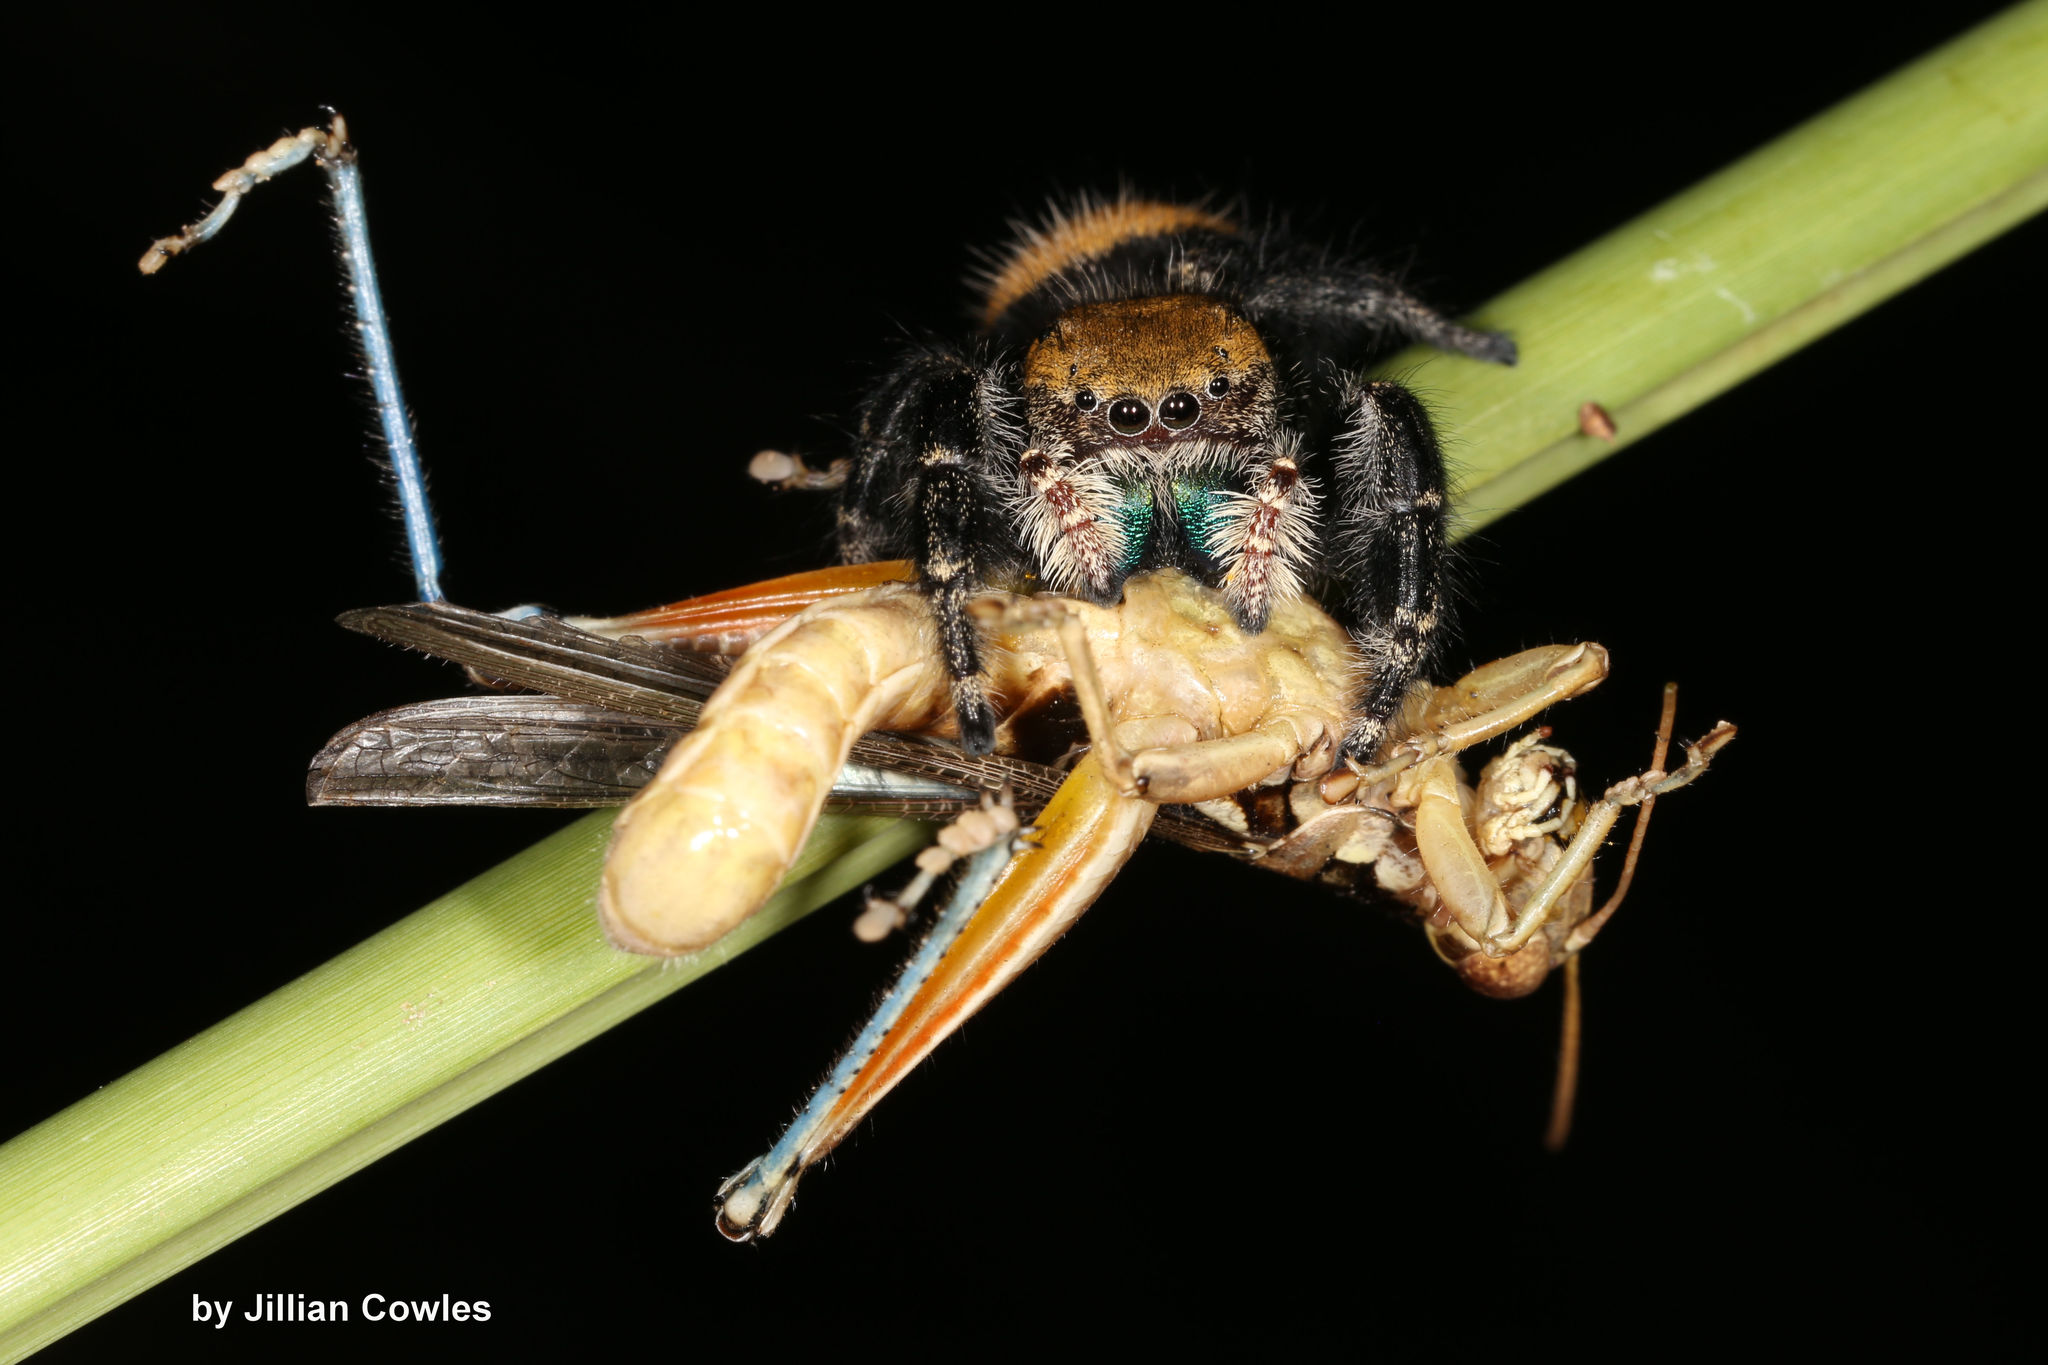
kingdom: Animalia
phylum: Arthropoda
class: Arachnida
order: Araneae
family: Salticidae
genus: Phidippus
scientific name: Phidippus apacheanus
